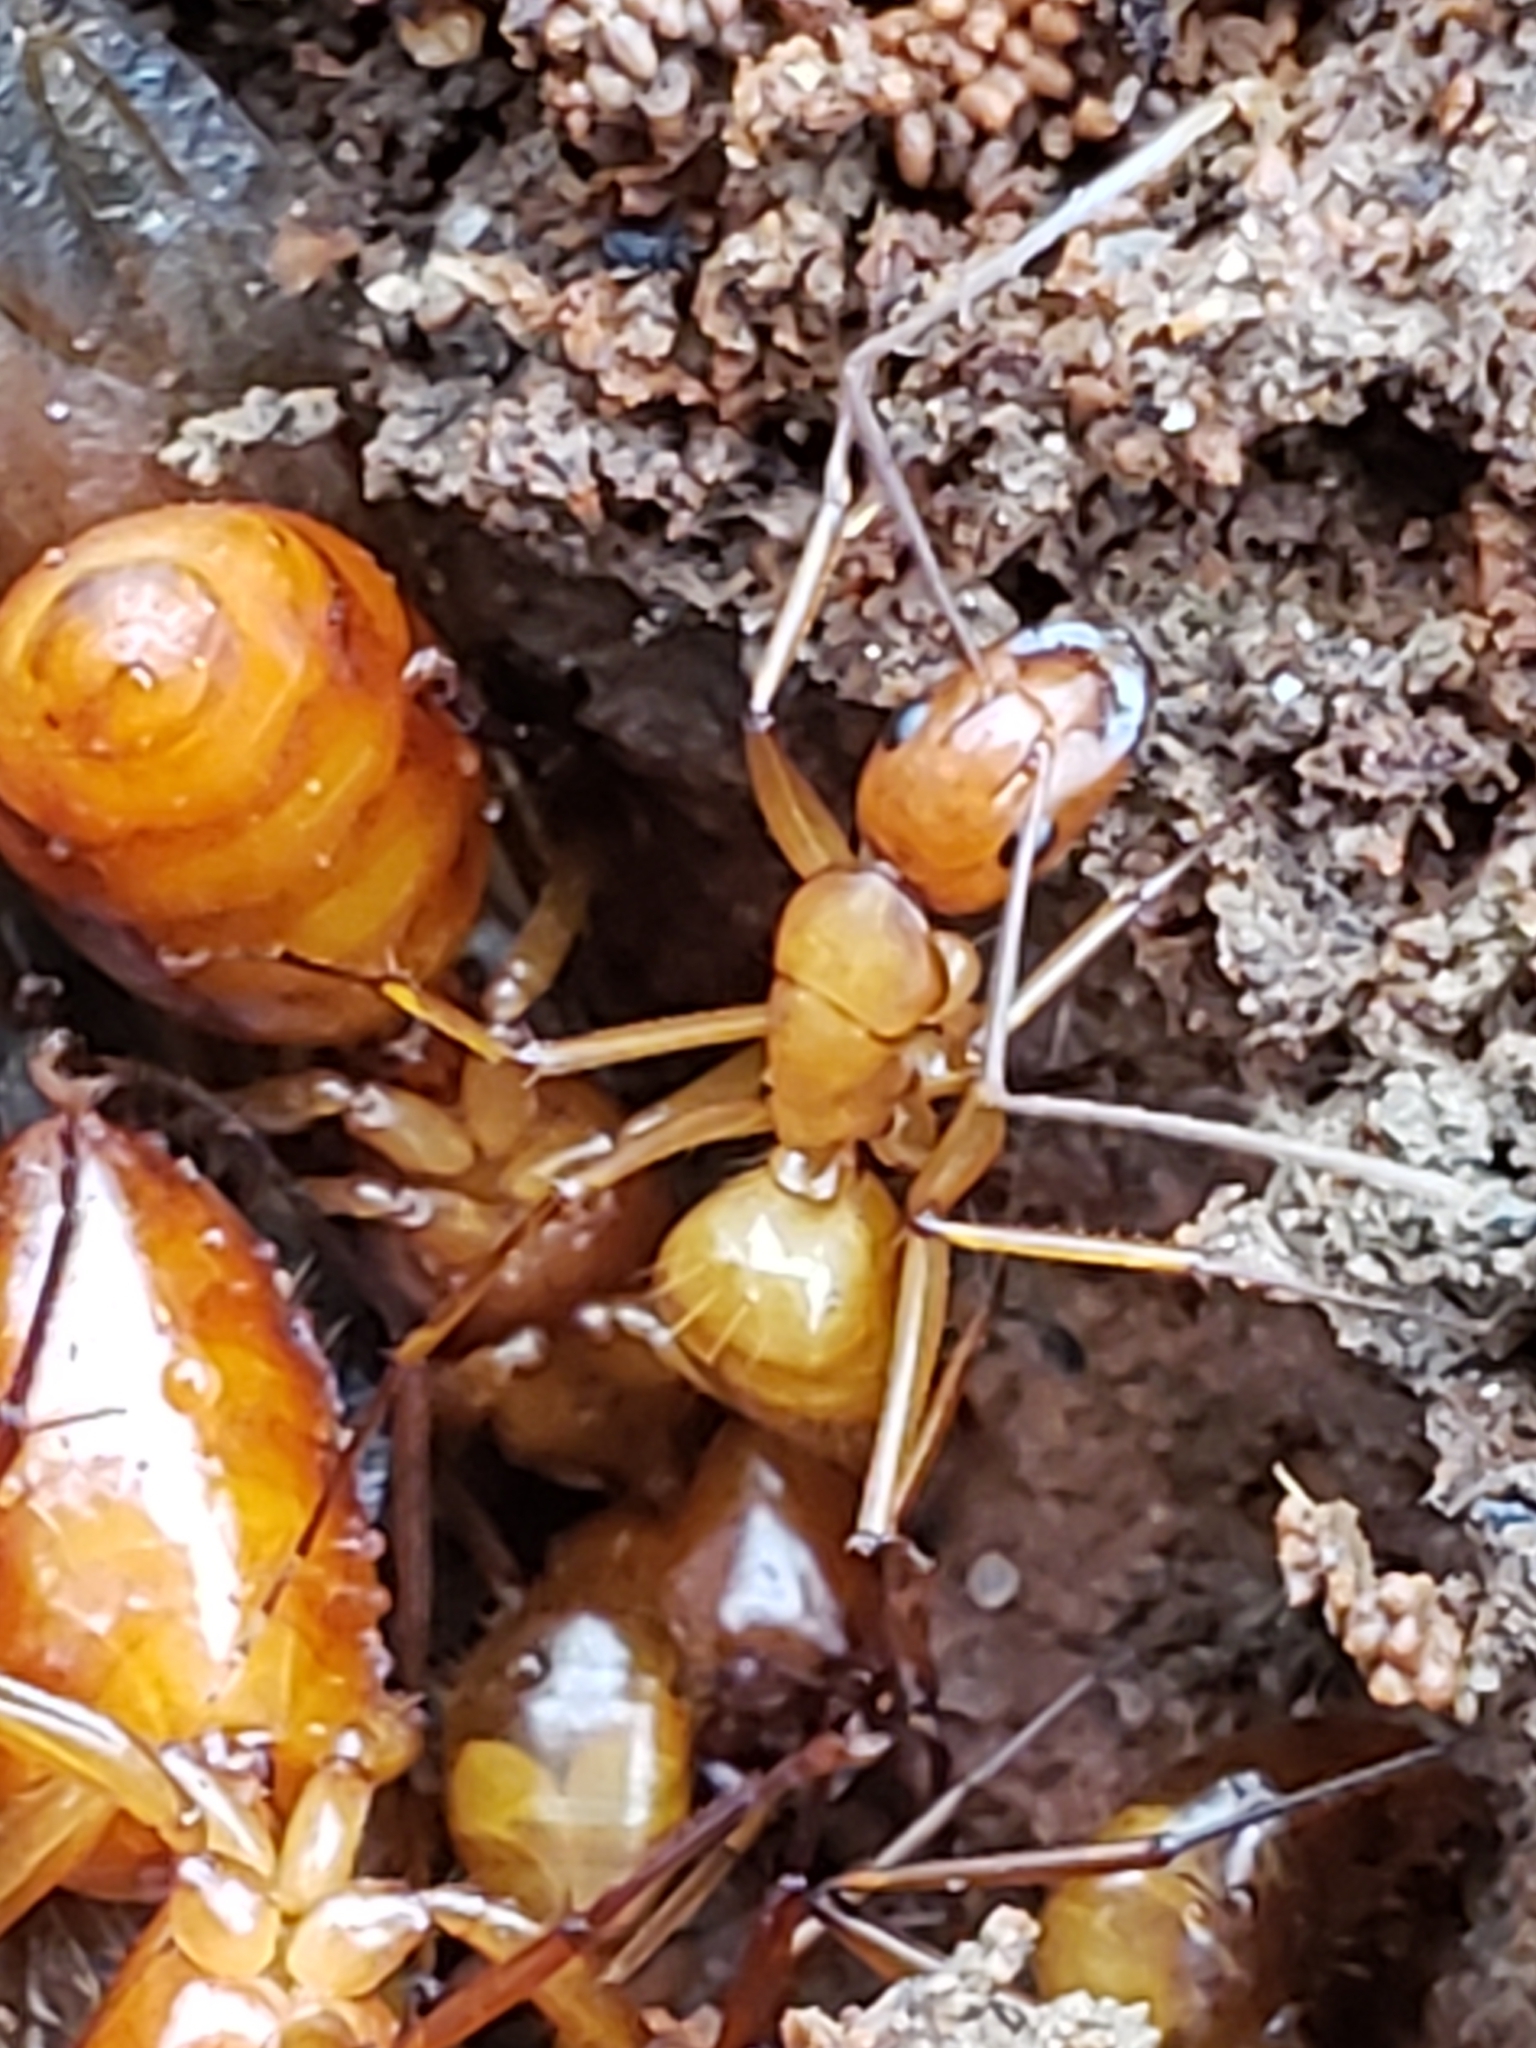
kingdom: Animalia
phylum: Arthropoda
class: Insecta
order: Hymenoptera
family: Formicidae
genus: Camponotus
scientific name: Camponotus castaneus
